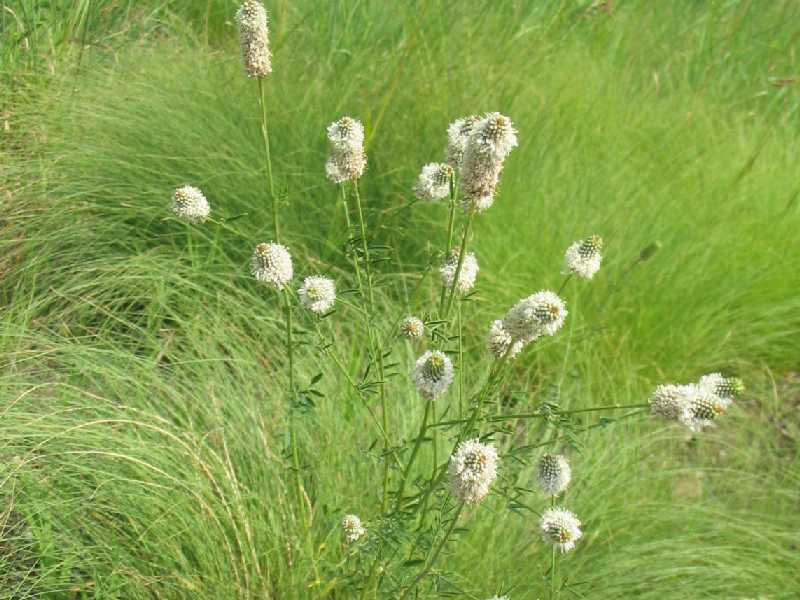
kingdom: Plantae
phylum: Tracheophyta
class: Magnoliopsida
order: Fabales
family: Fabaceae
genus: Dalea
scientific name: Dalea candida
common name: White prairie-clover
